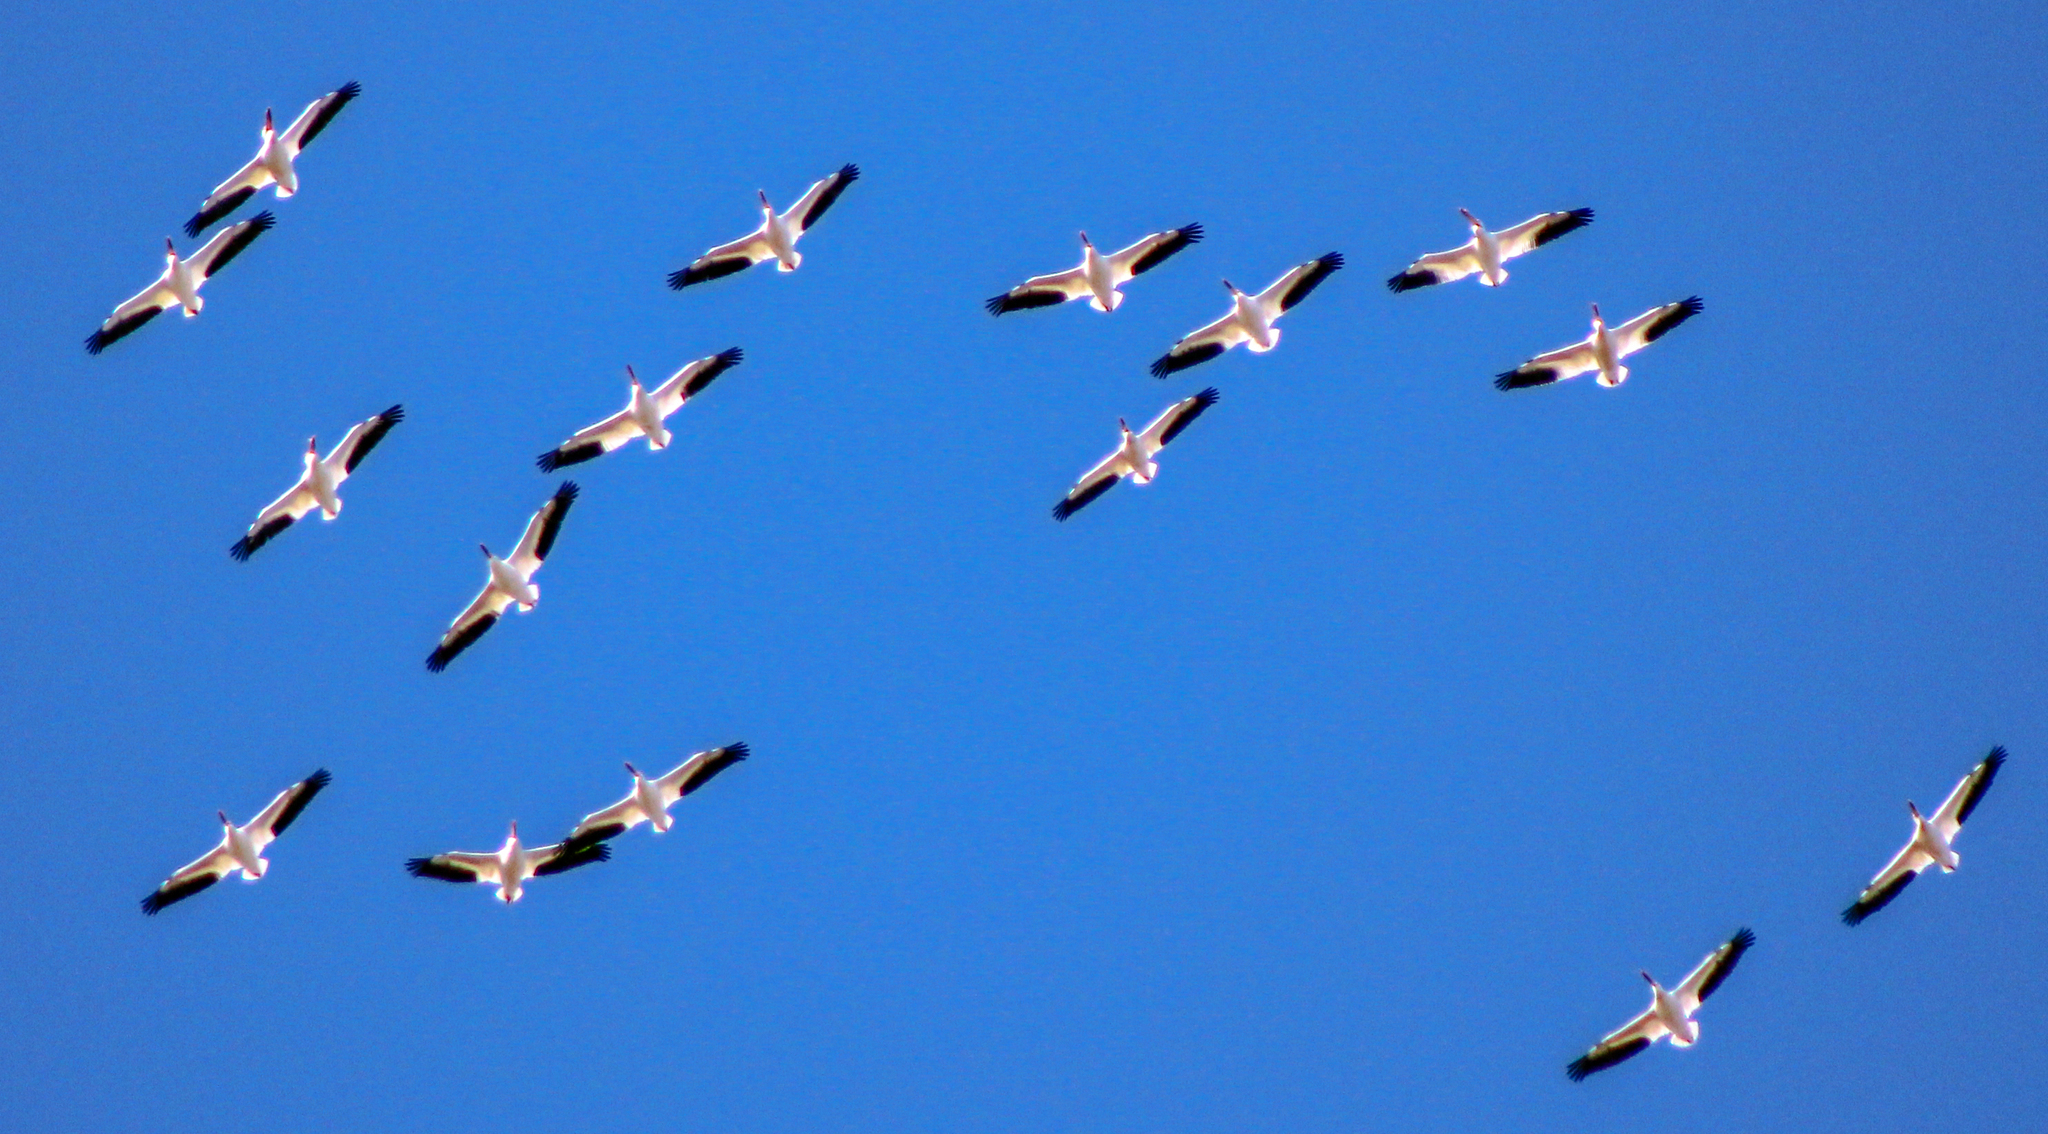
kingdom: Animalia
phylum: Chordata
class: Aves
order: Pelecaniformes
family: Pelecanidae
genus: Pelecanus
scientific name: Pelecanus erythrorhynchos
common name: American white pelican
